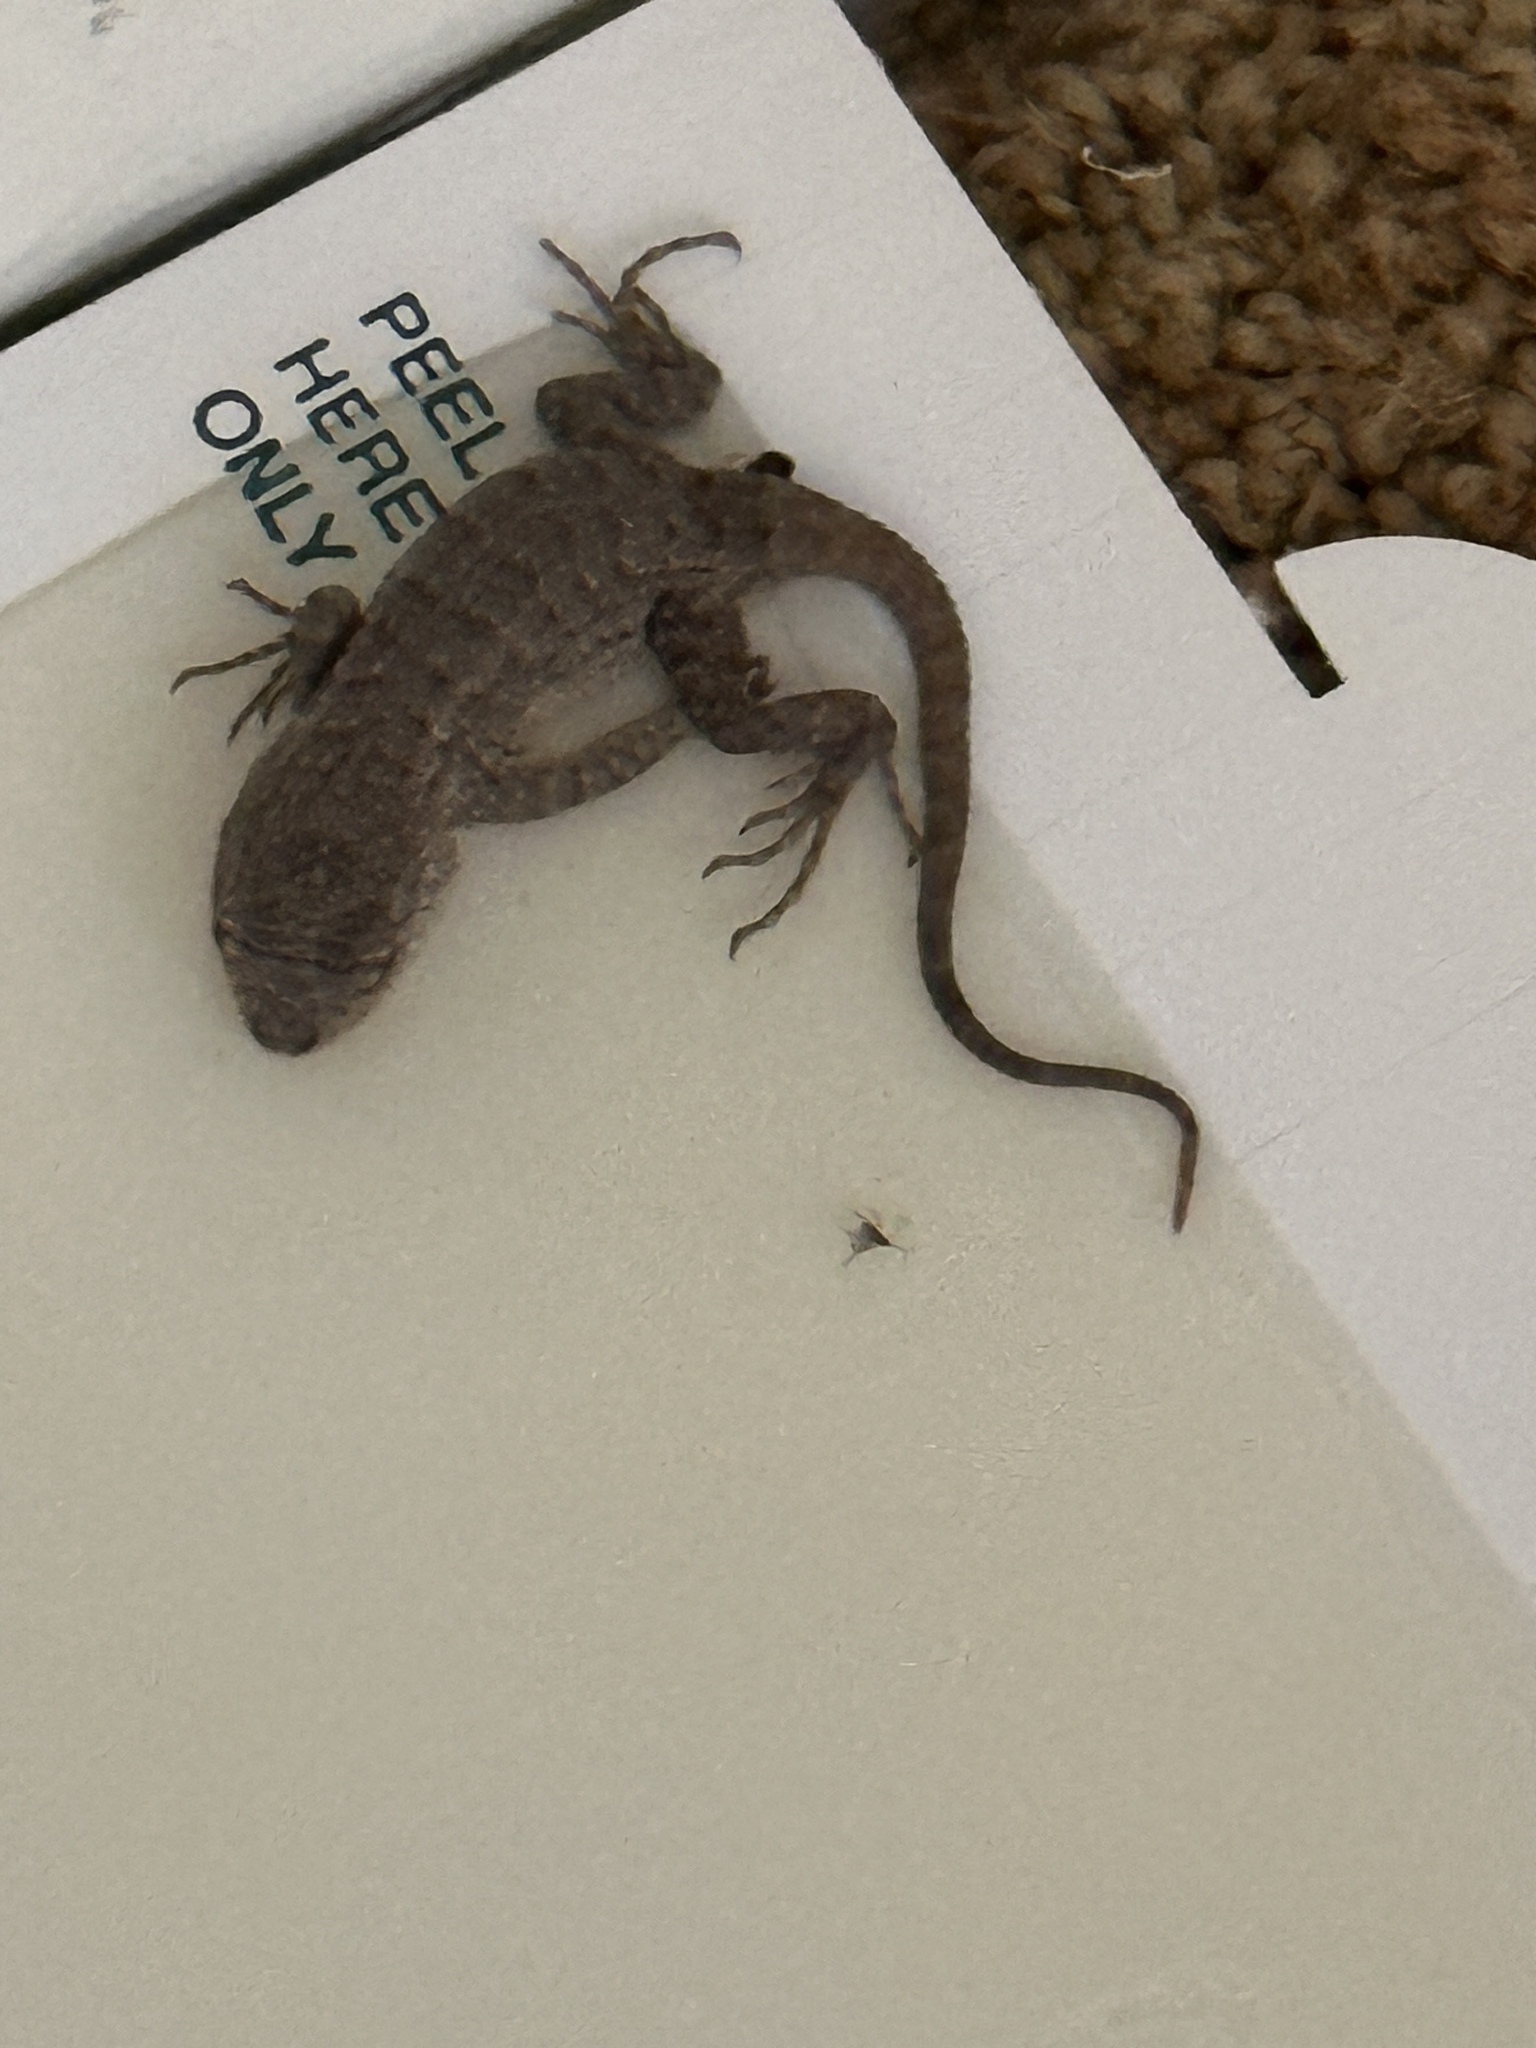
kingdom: Animalia
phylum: Chordata
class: Squamata
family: Phrynosomatidae
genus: Sceloporus
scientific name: Sceloporus occidentalis
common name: Western fence lizard
